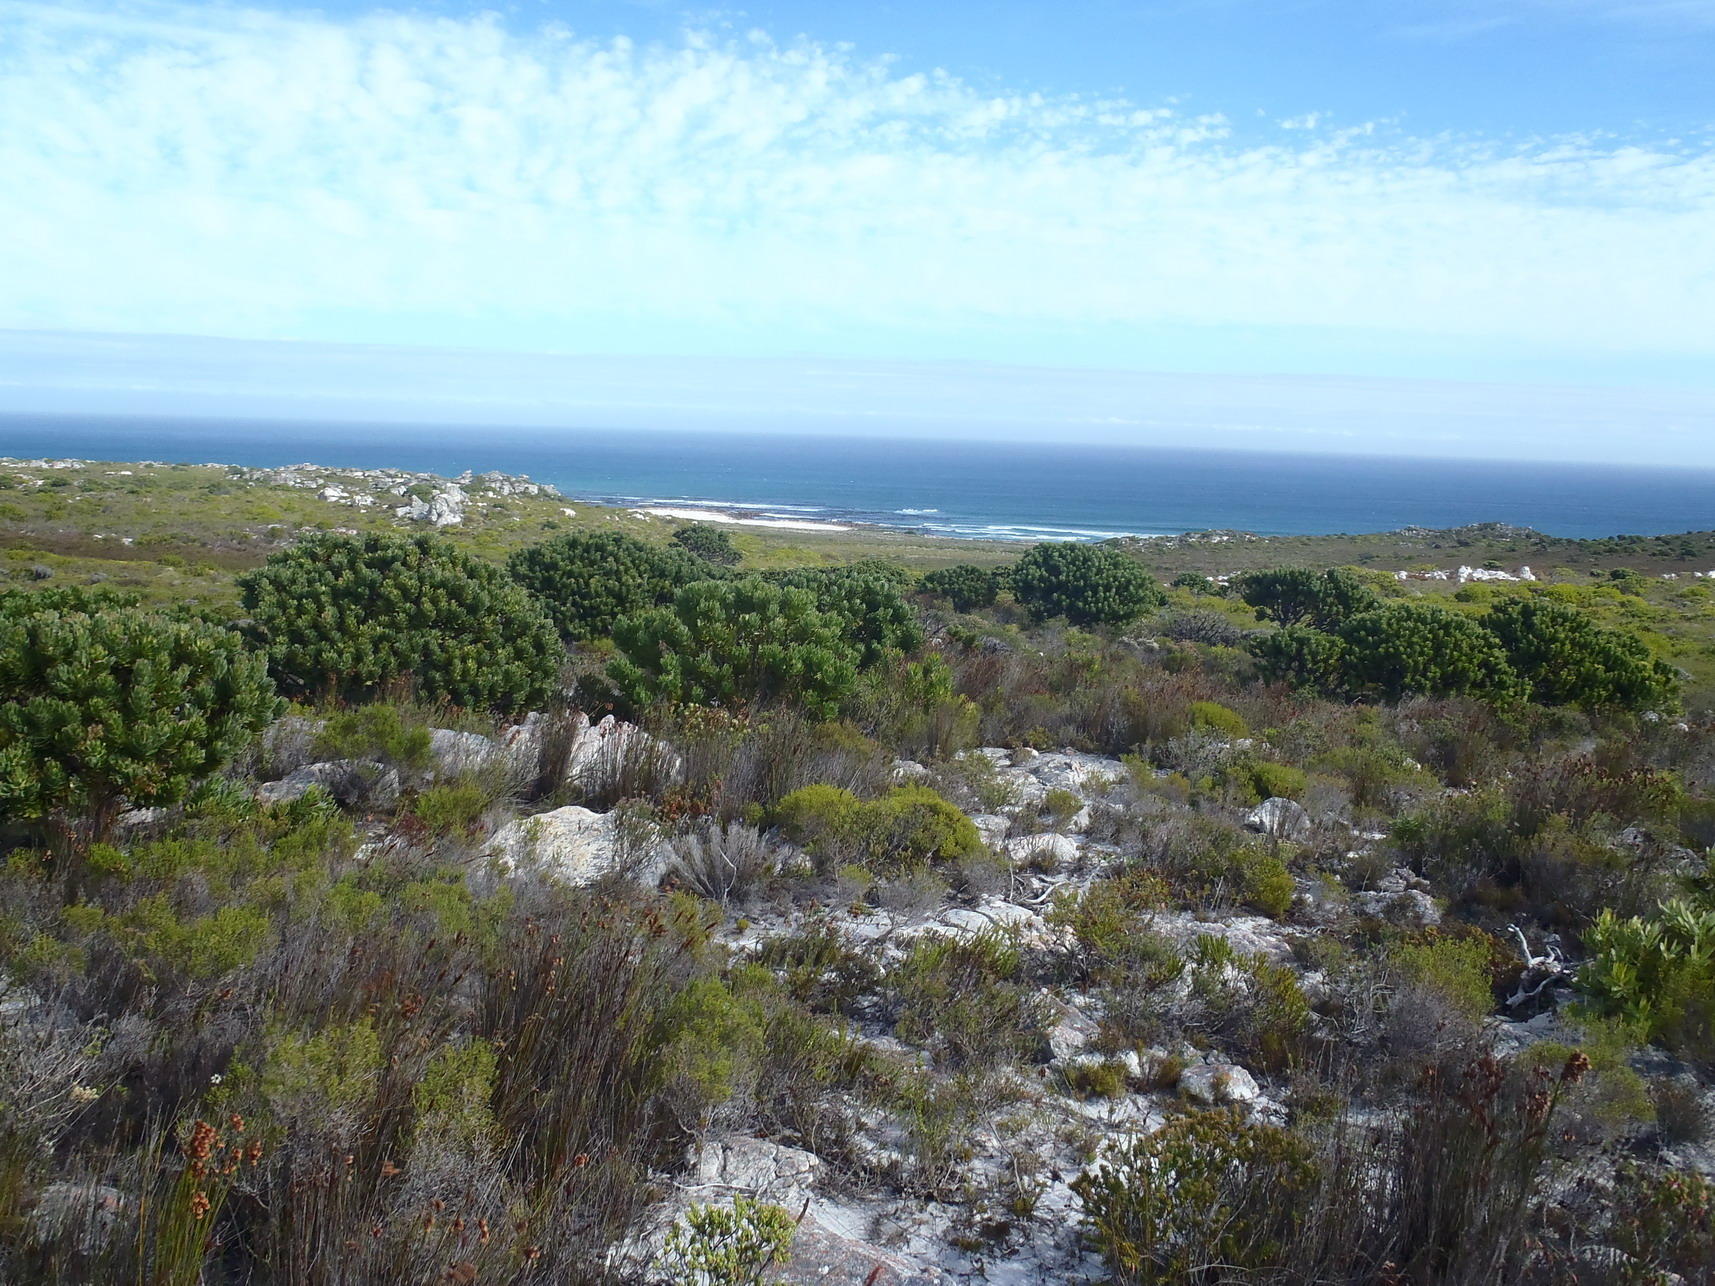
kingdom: Plantae
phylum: Tracheophyta
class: Magnoliopsida
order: Proteales
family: Proteaceae
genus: Leucospermum
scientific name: Leucospermum conocarpodendron
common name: Tree pincushion
